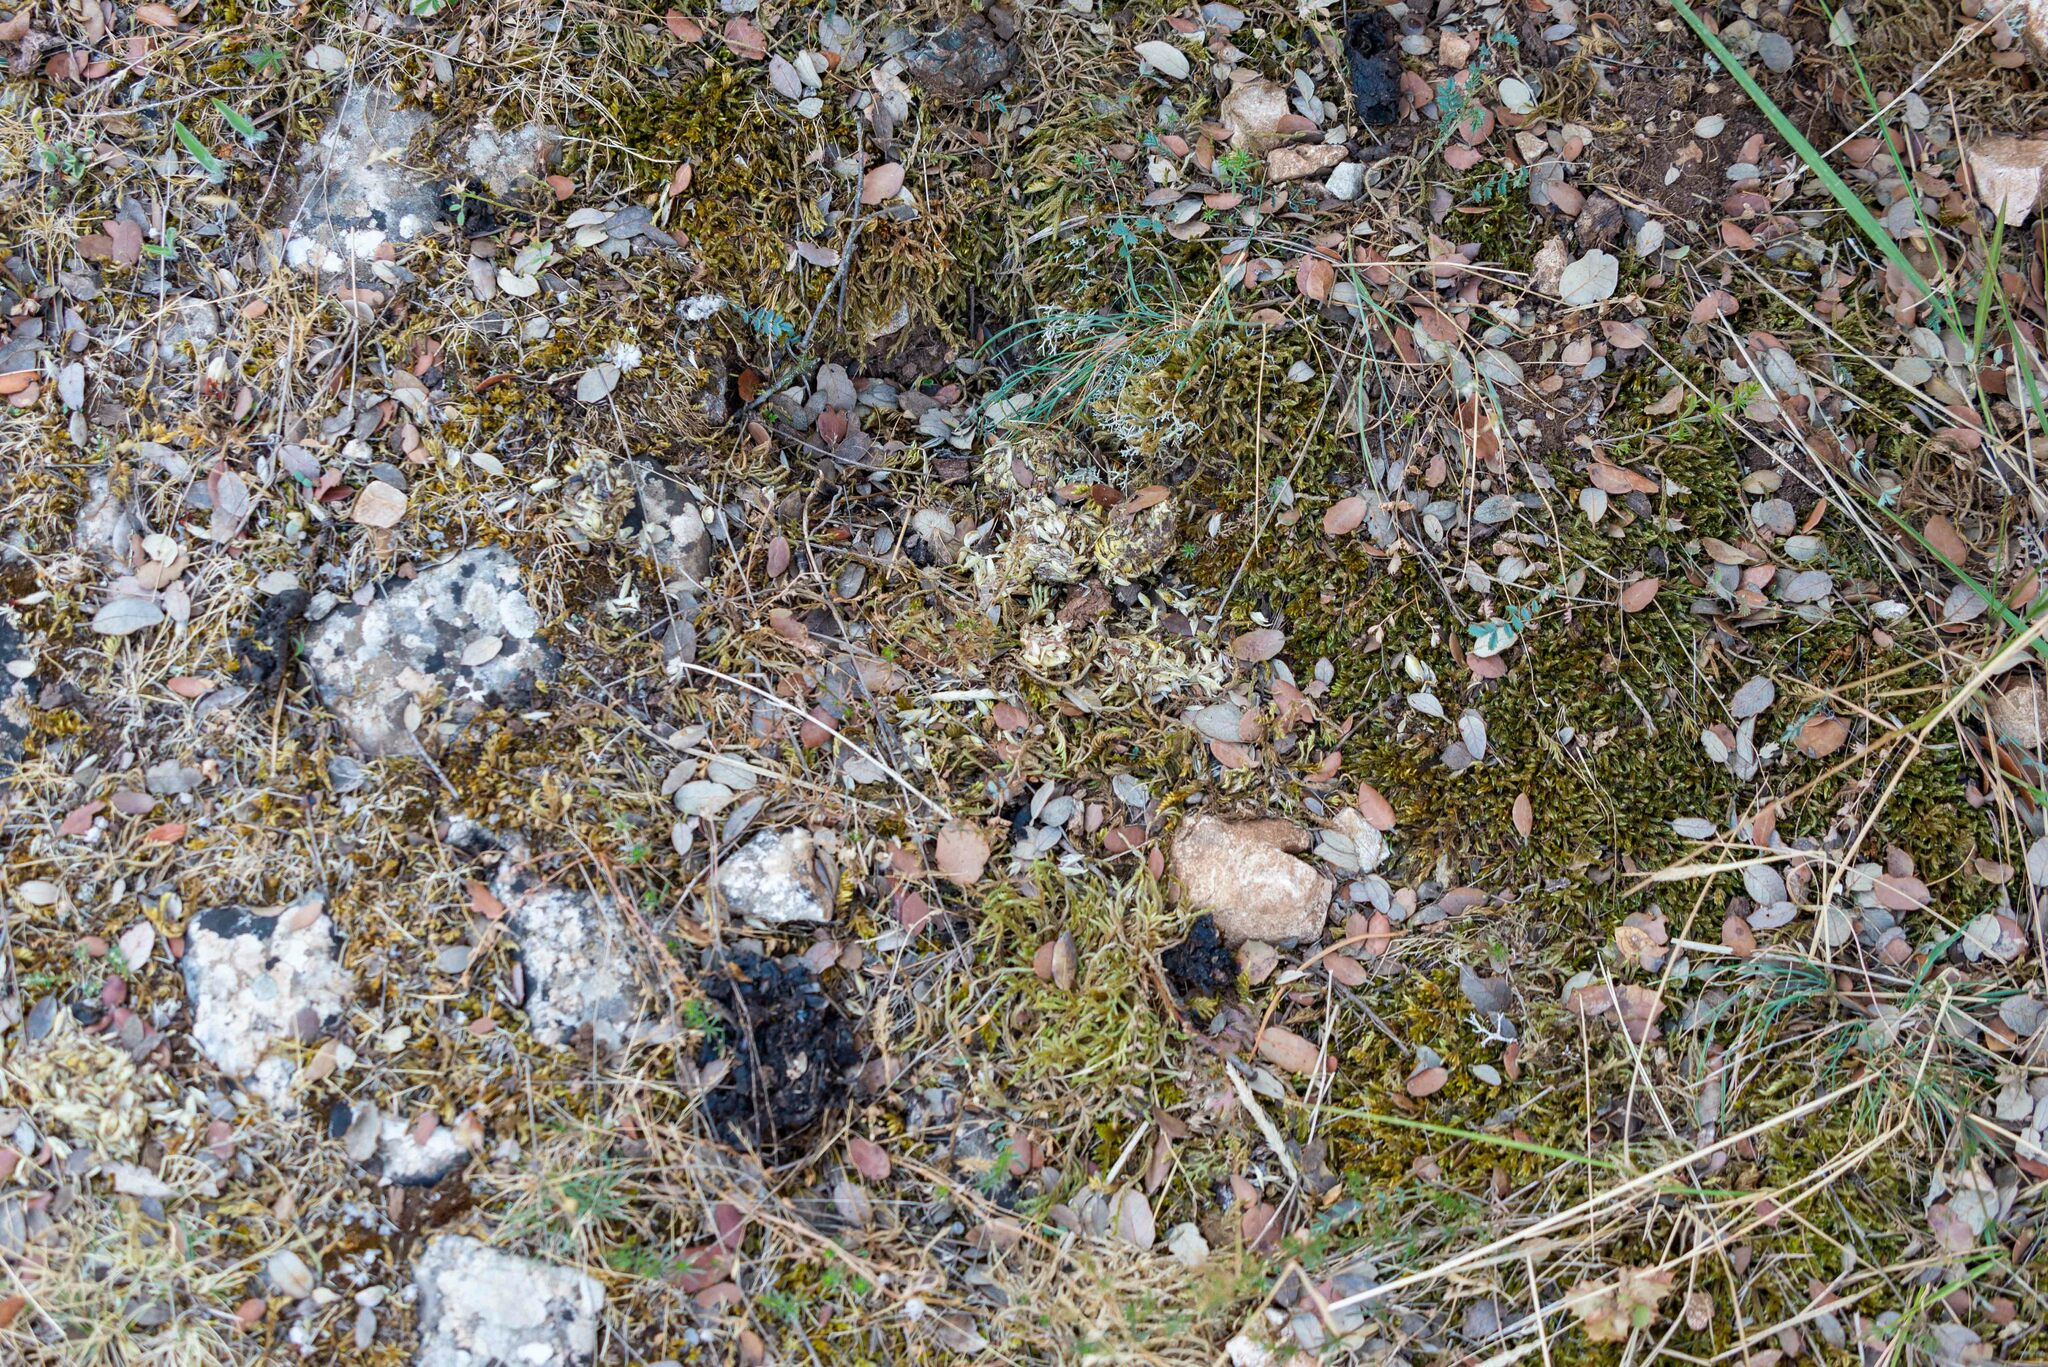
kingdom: Animalia
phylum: Chordata
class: Mammalia
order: Carnivora
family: Mustelidae
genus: Meles
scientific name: Meles meles
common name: Eurasian badger
